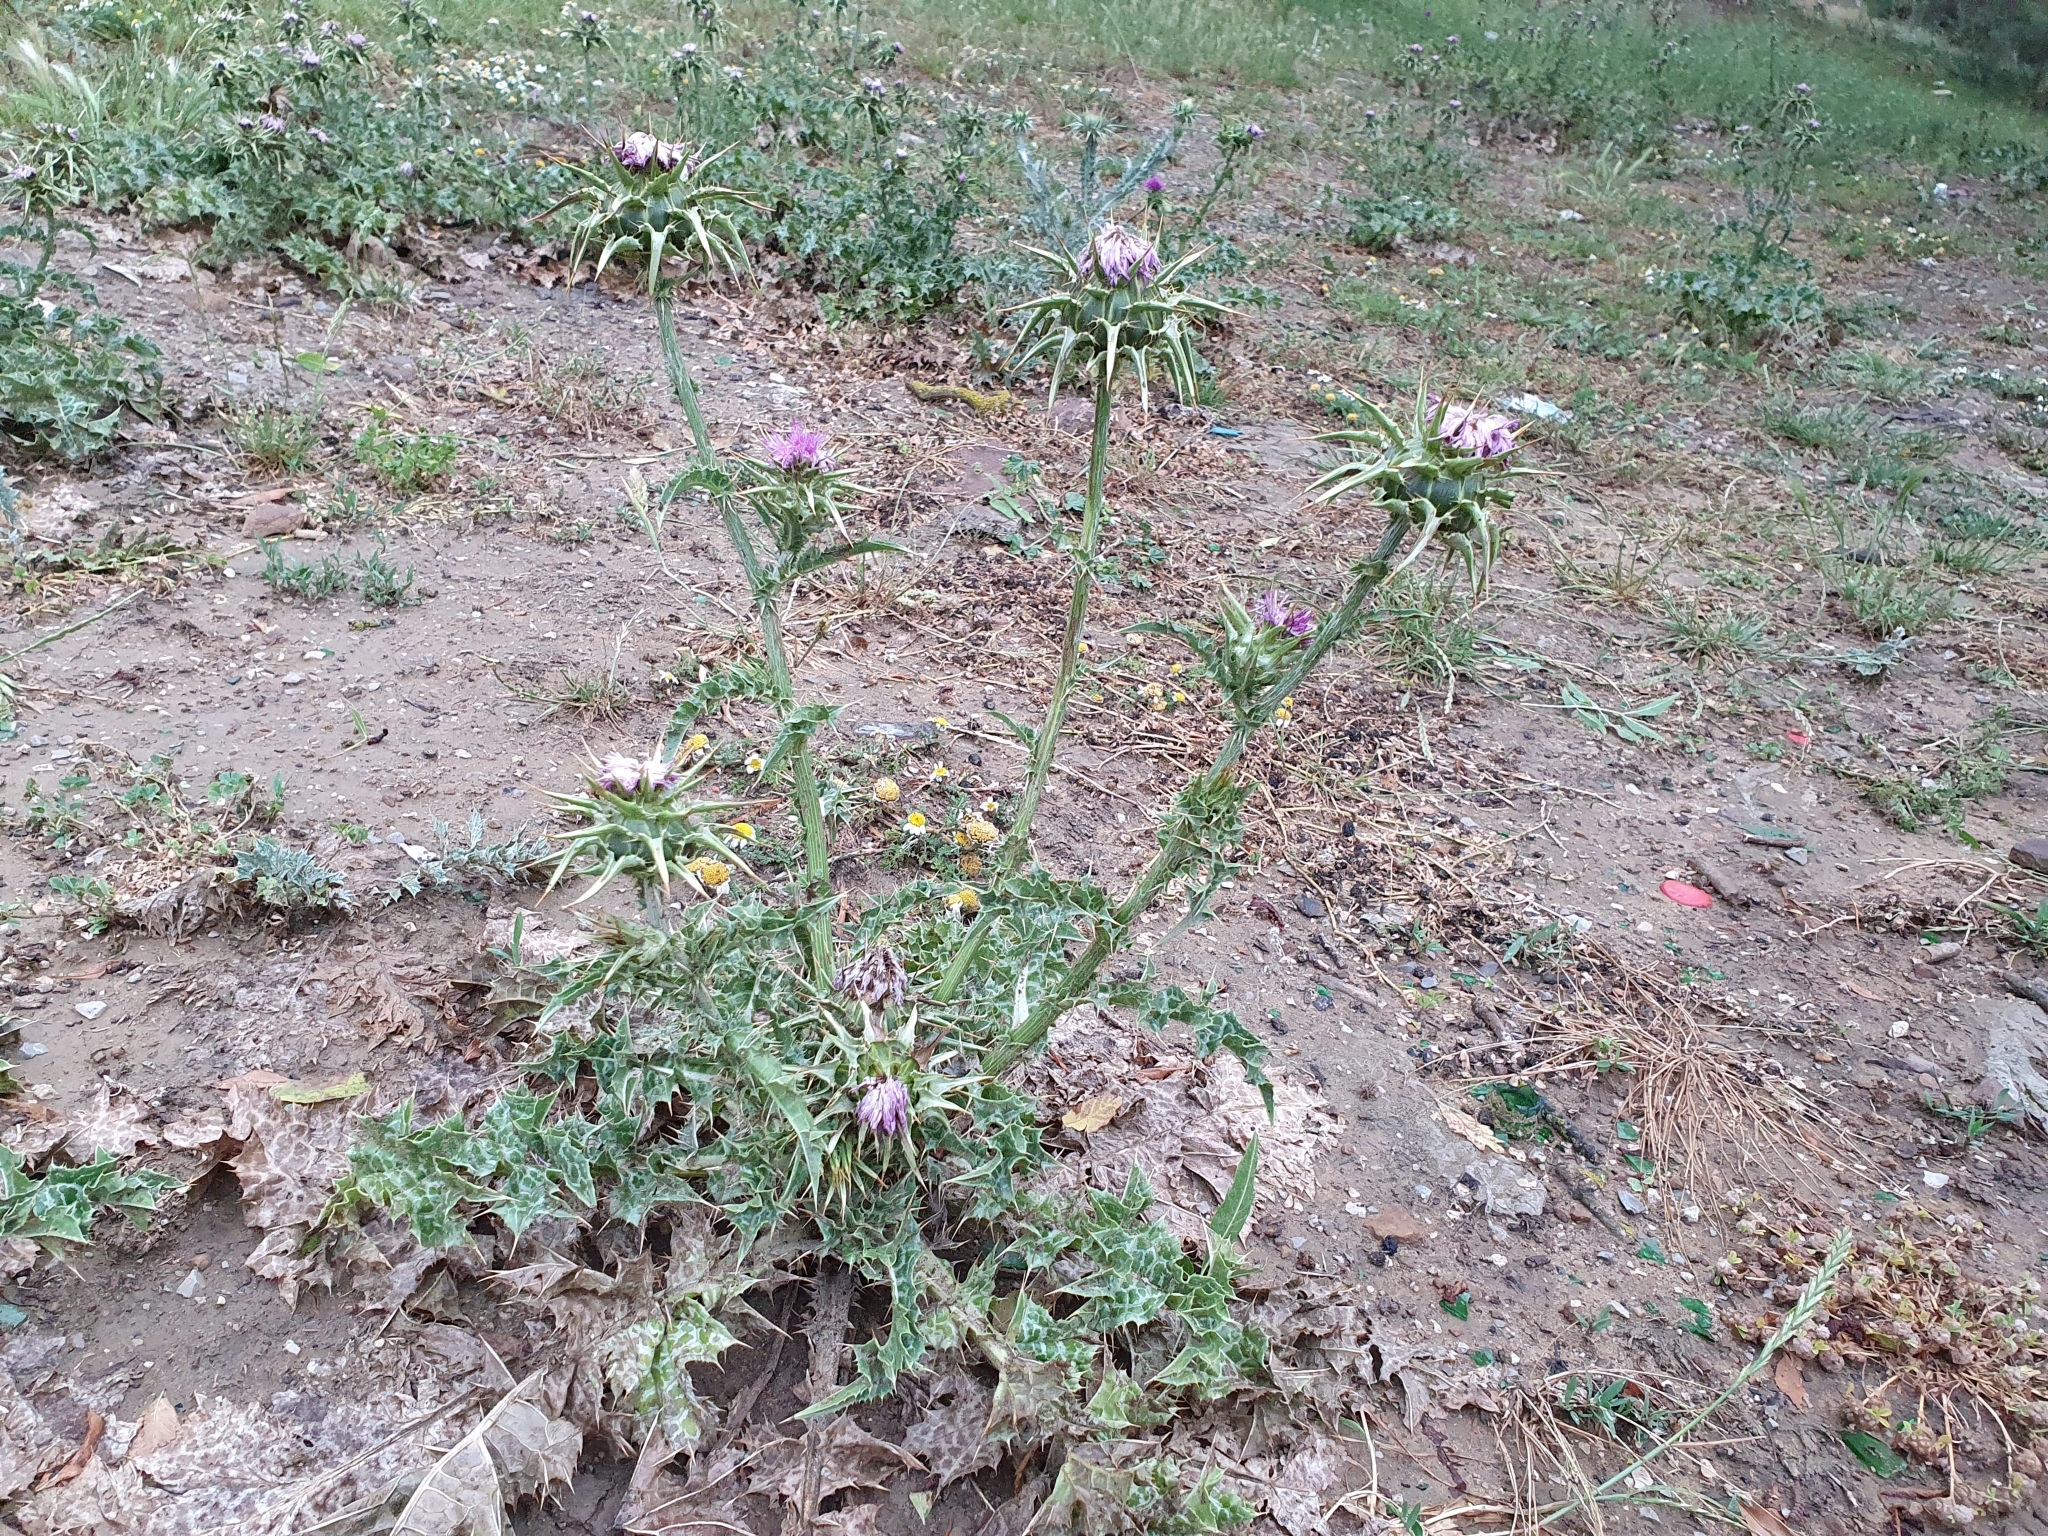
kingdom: Plantae
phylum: Tracheophyta
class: Magnoliopsida
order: Asterales
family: Asteraceae
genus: Silybum
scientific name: Silybum marianum
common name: Milk thistle
